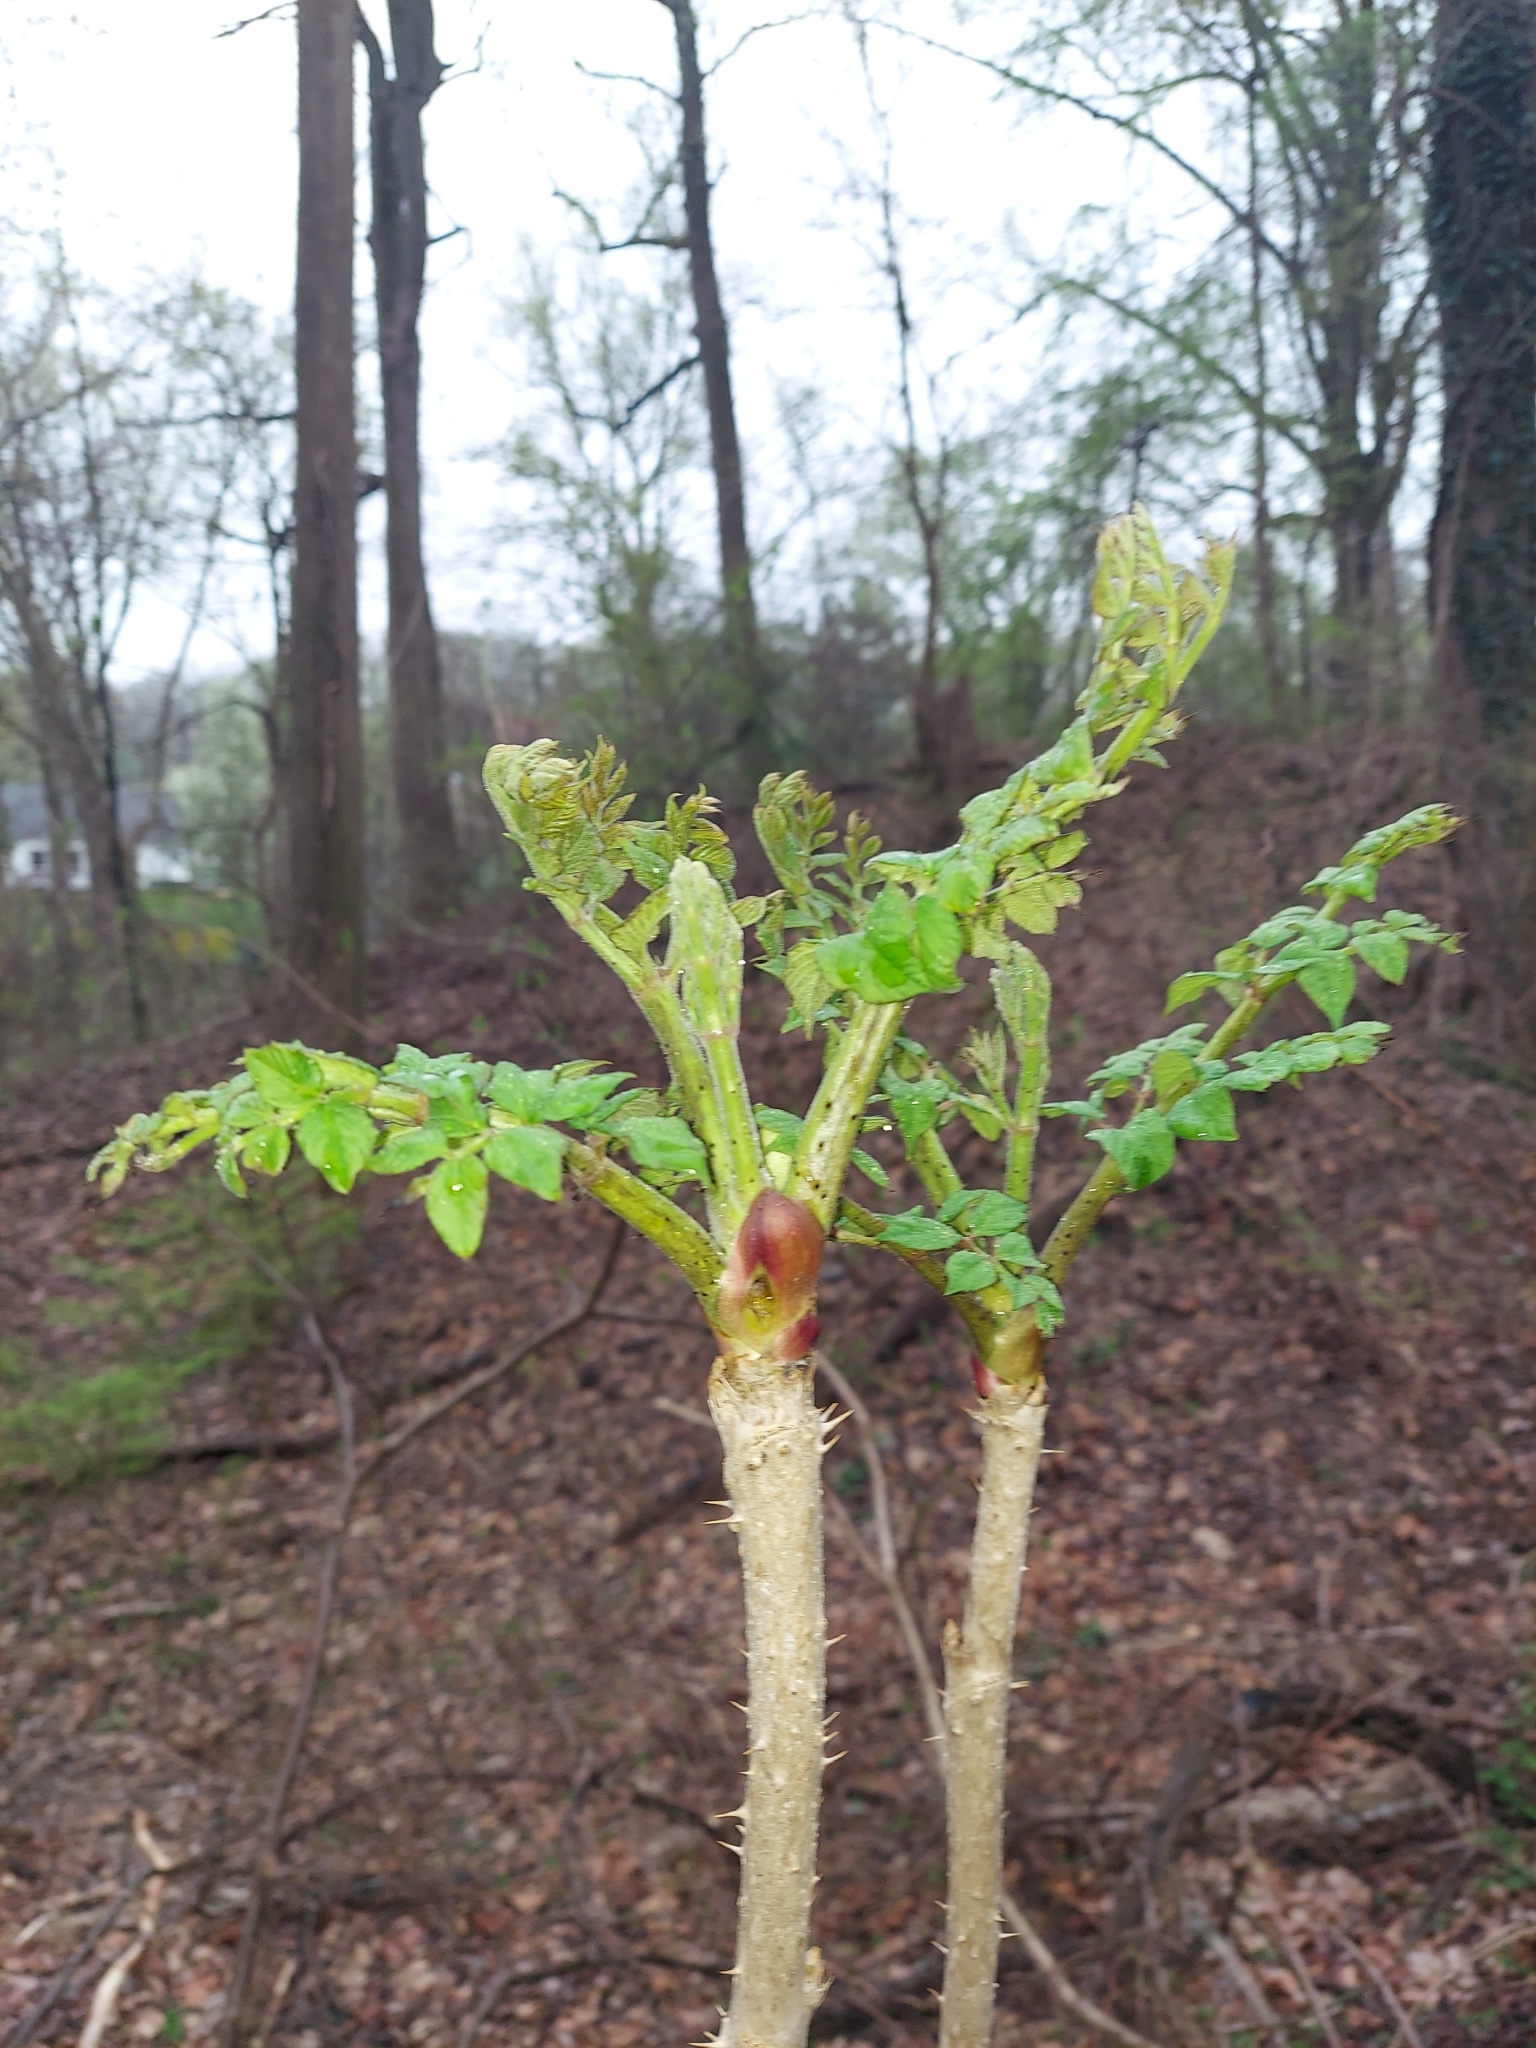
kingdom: Plantae
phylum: Tracheophyta
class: Magnoliopsida
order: Apiales
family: Araliaceae
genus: Aralia
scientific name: Aralia elata
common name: Japanese angelica-tree
